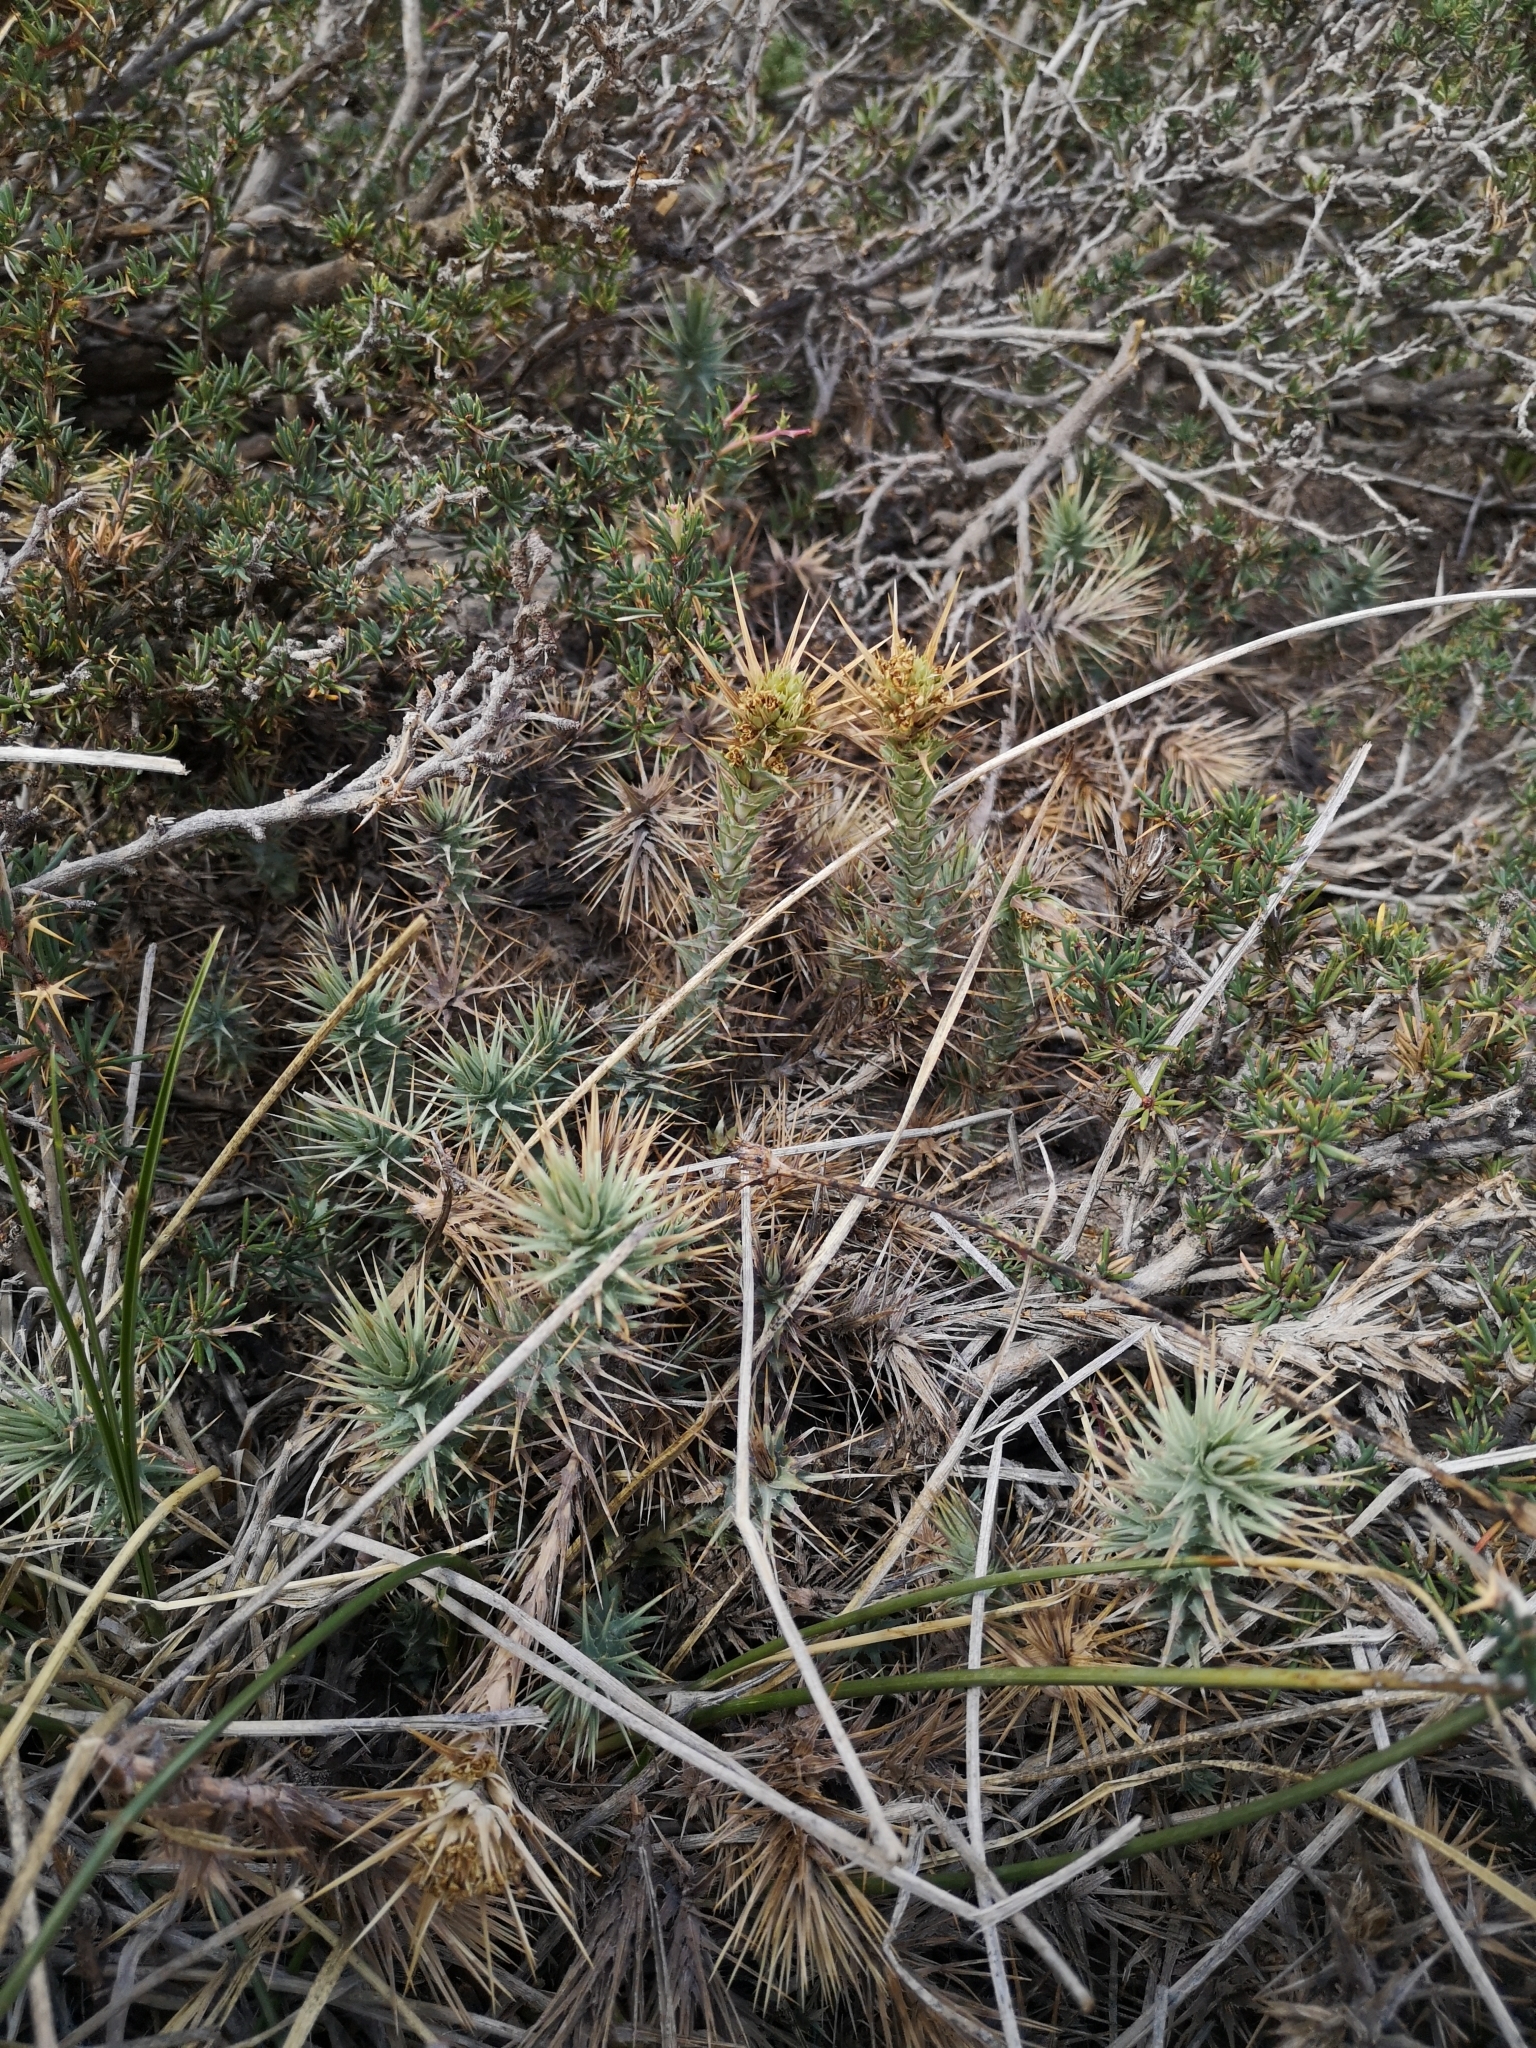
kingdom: Plantae
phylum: Tracheophyta
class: Magnoliopsida
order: Asterales
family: Asteraceae
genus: Nassauvia
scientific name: Nassauvia cumingii
